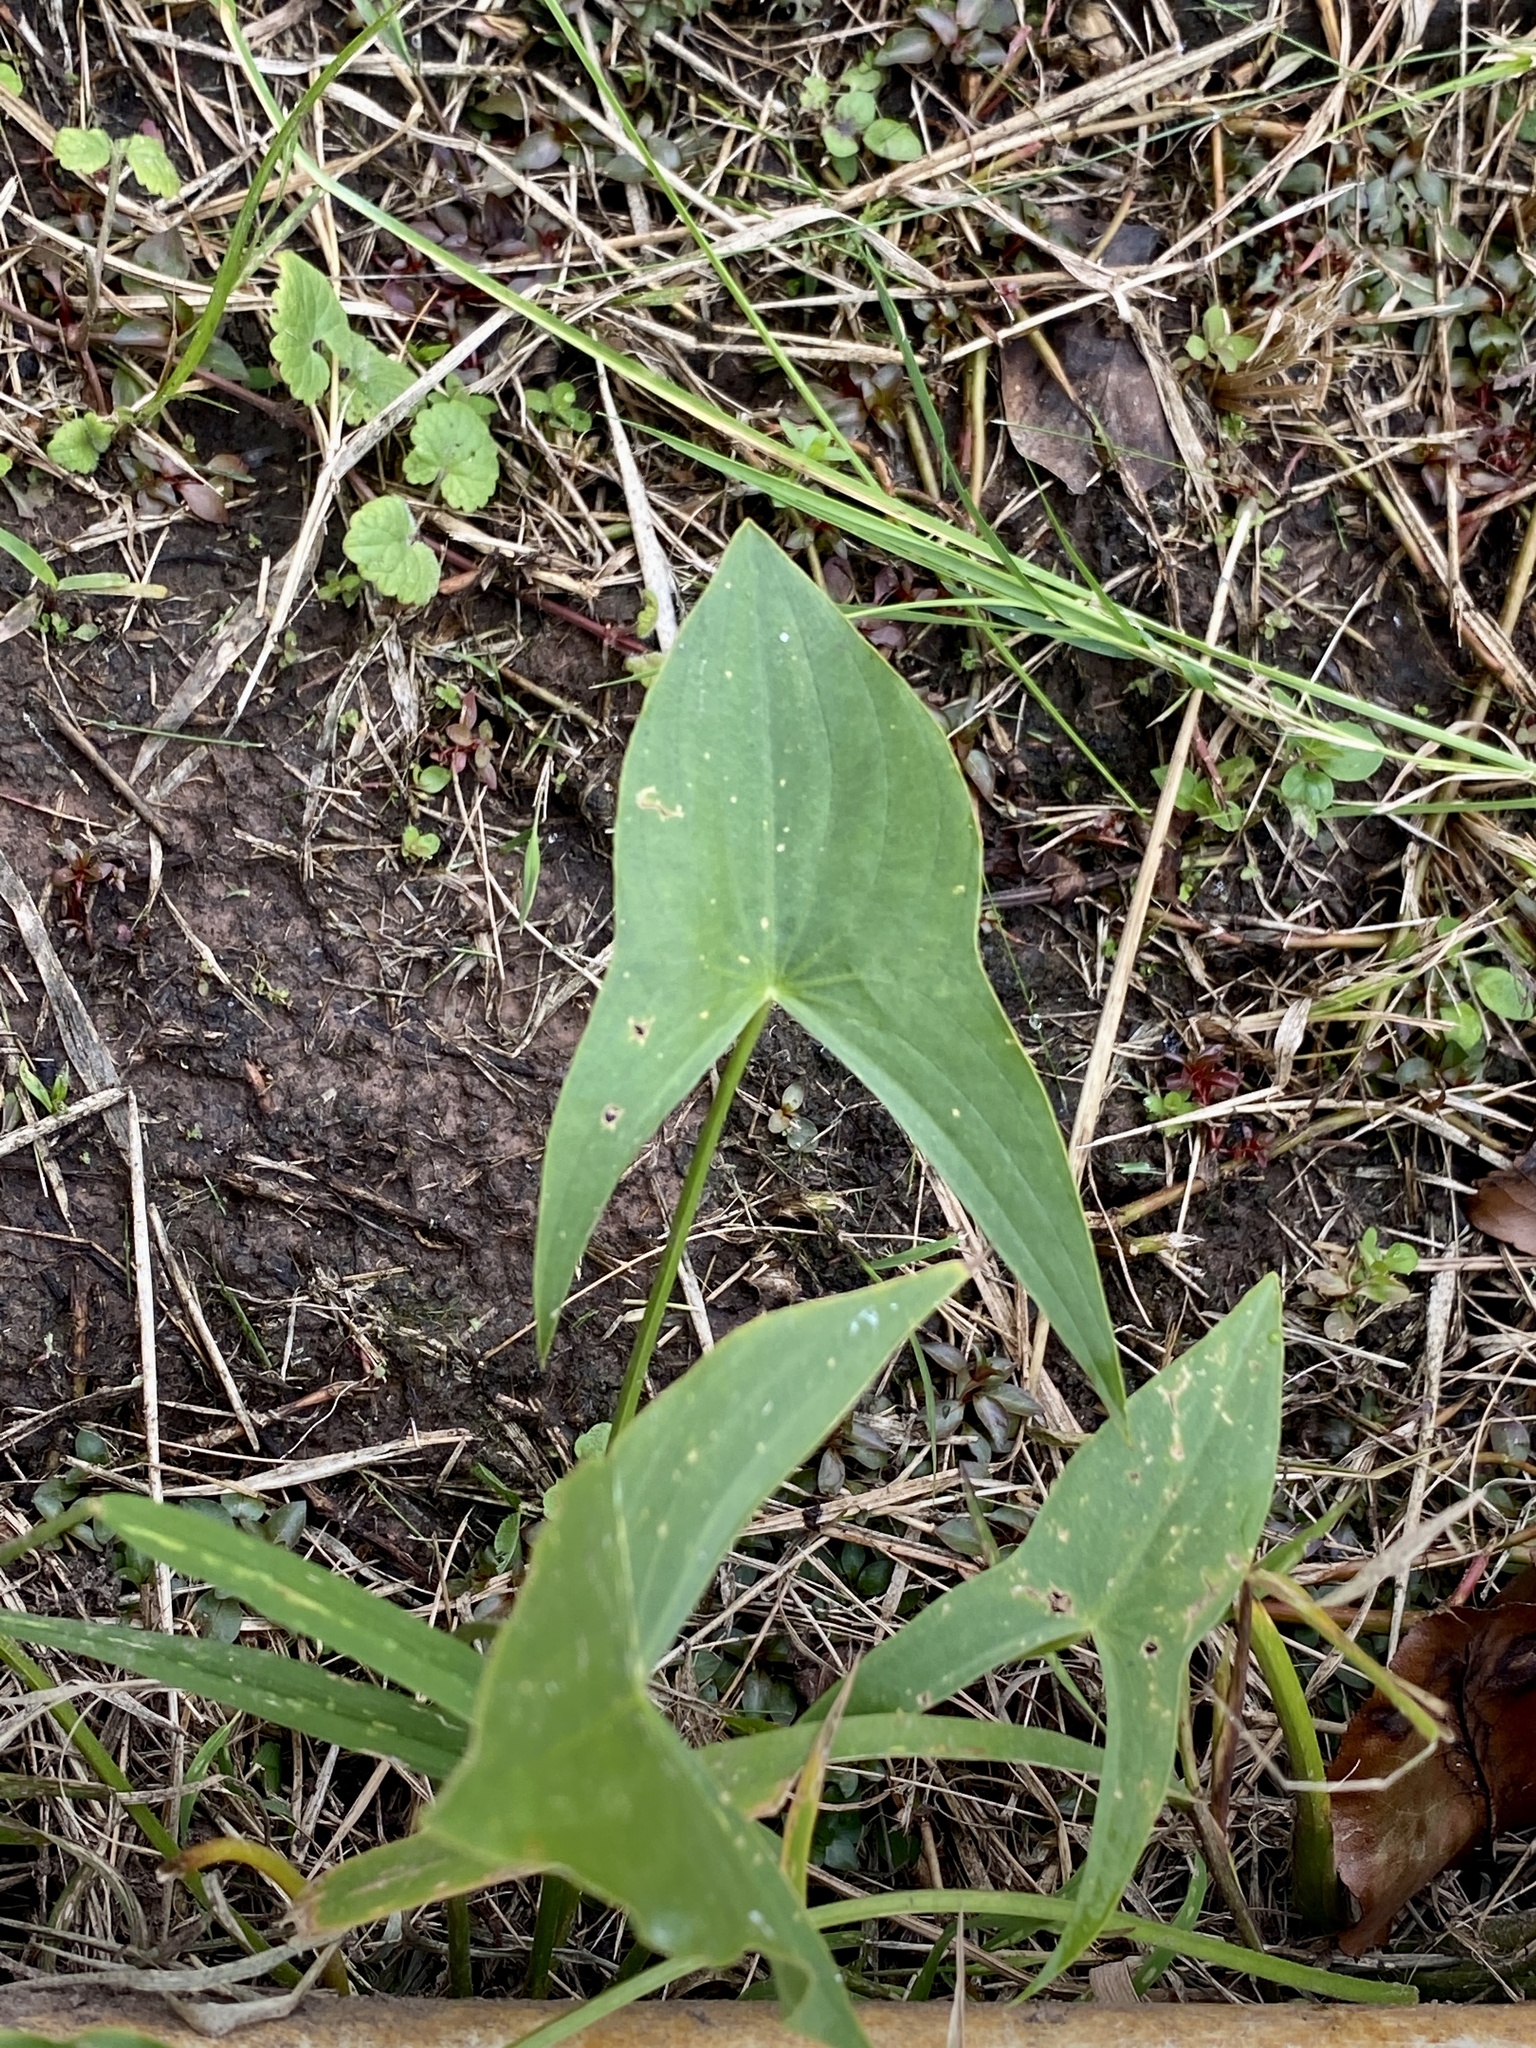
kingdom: Plantae
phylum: Tracheophyta
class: Liliopsida
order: Alismatales
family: Alismataceae
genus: Sagittaria
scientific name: Sagittaria latifolia
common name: Duck-potato
